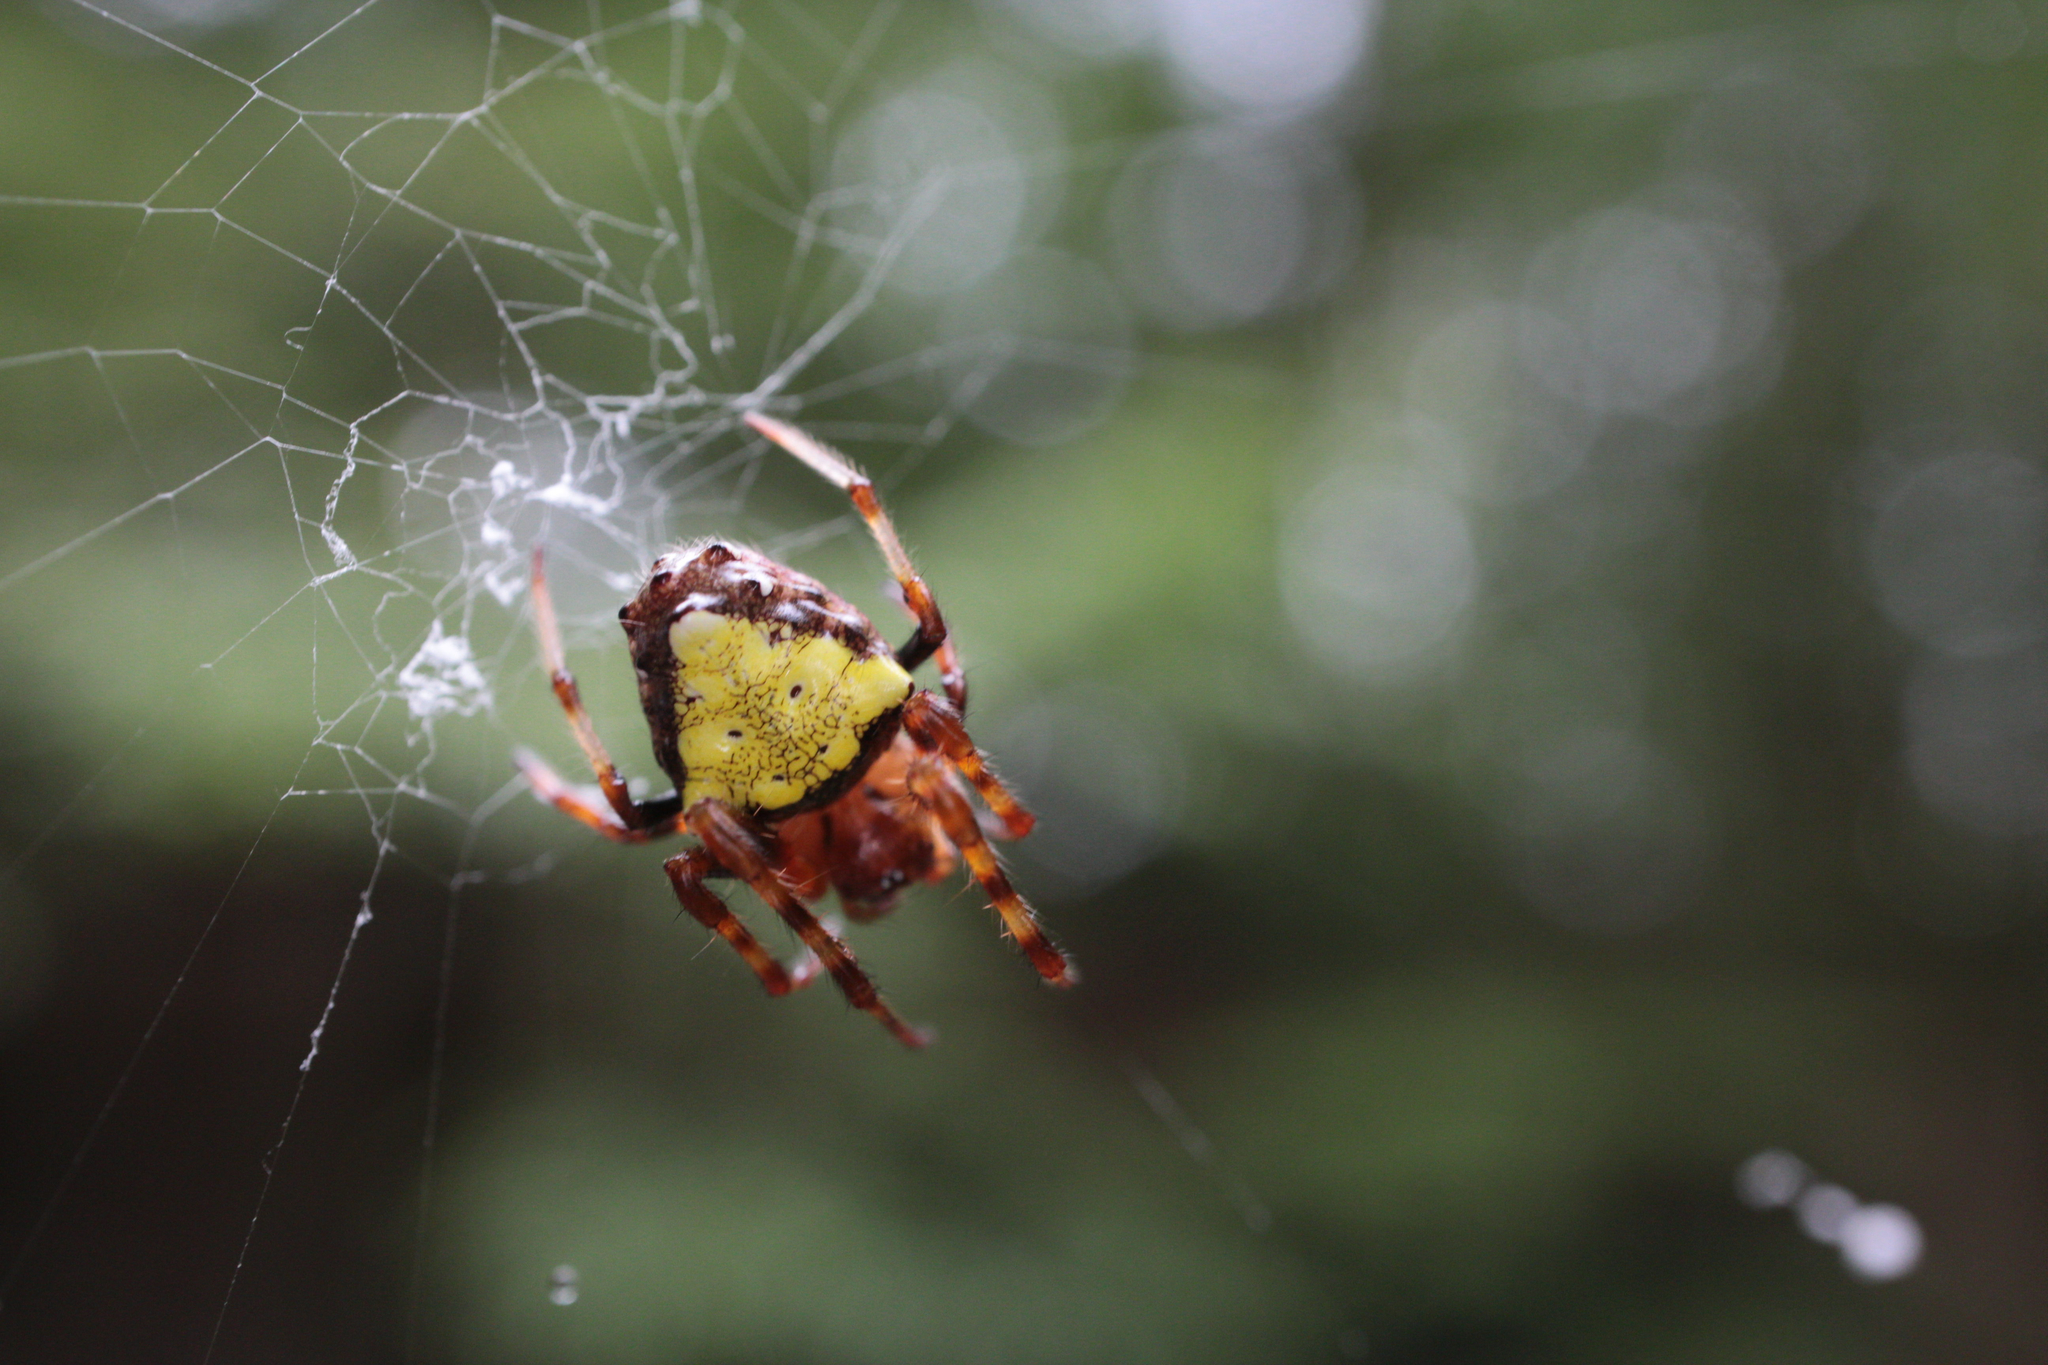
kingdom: Animalia
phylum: Arthropoda
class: Arachnida
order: Araneae
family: Araneidae
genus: Verrucosa
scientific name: Verrucosa arenata
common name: Orb weavers
